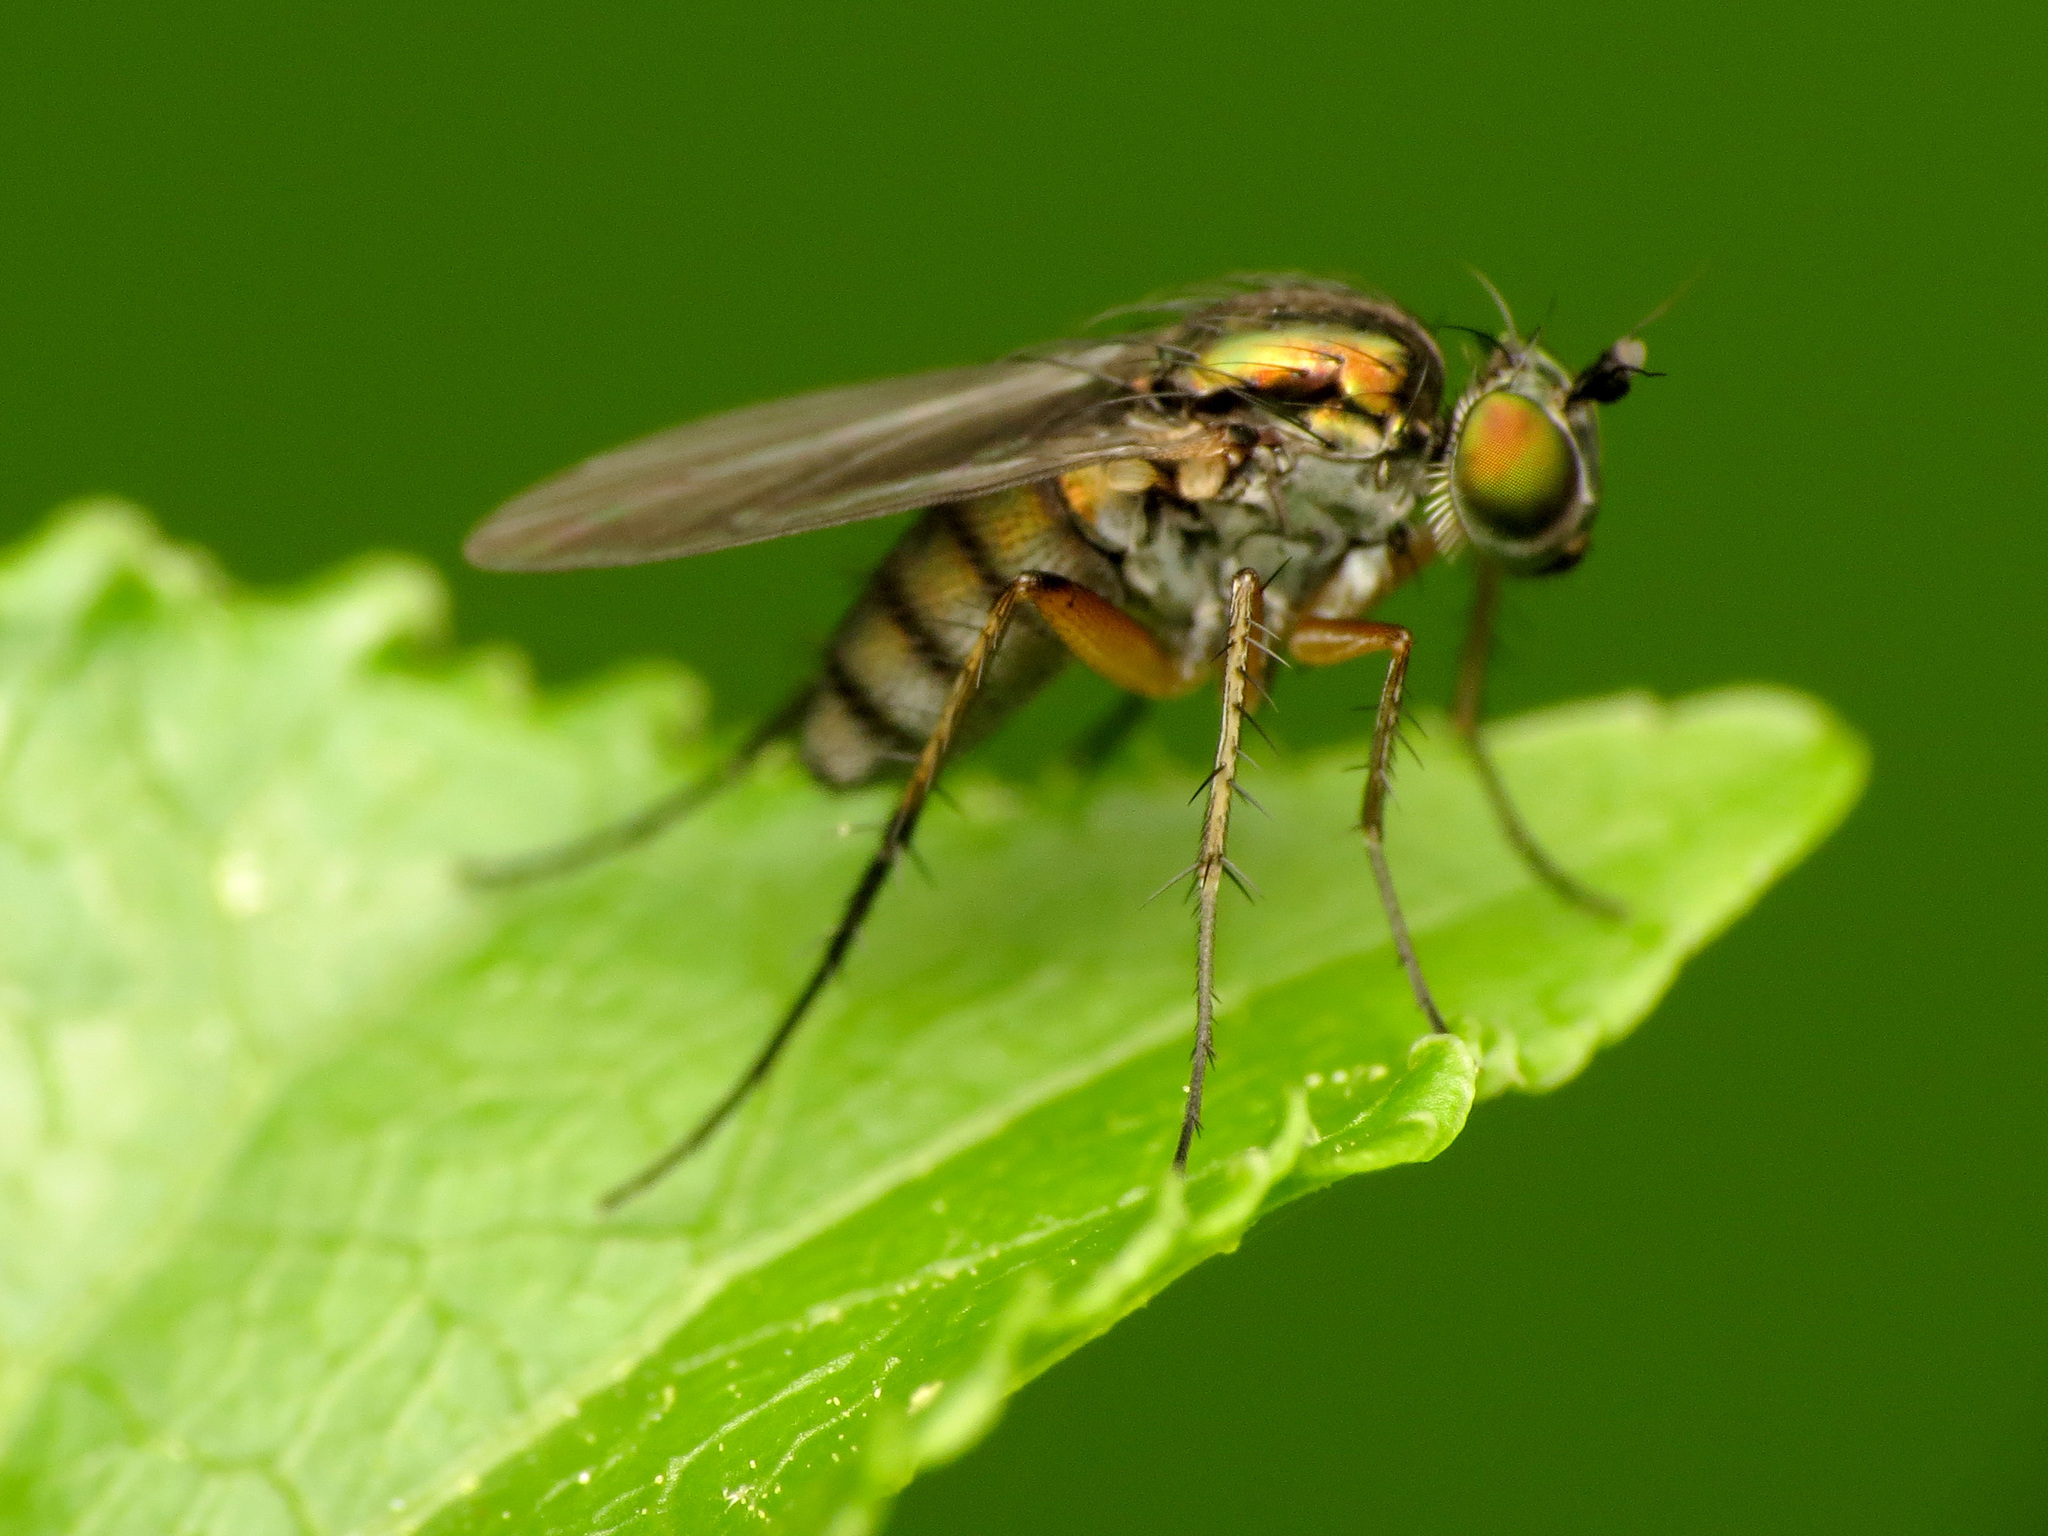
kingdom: Animalia
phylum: Arthropoda
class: Insecta
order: Diptera
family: Dolichopodidae
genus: Dolichopus
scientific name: Dolichopus comatus
